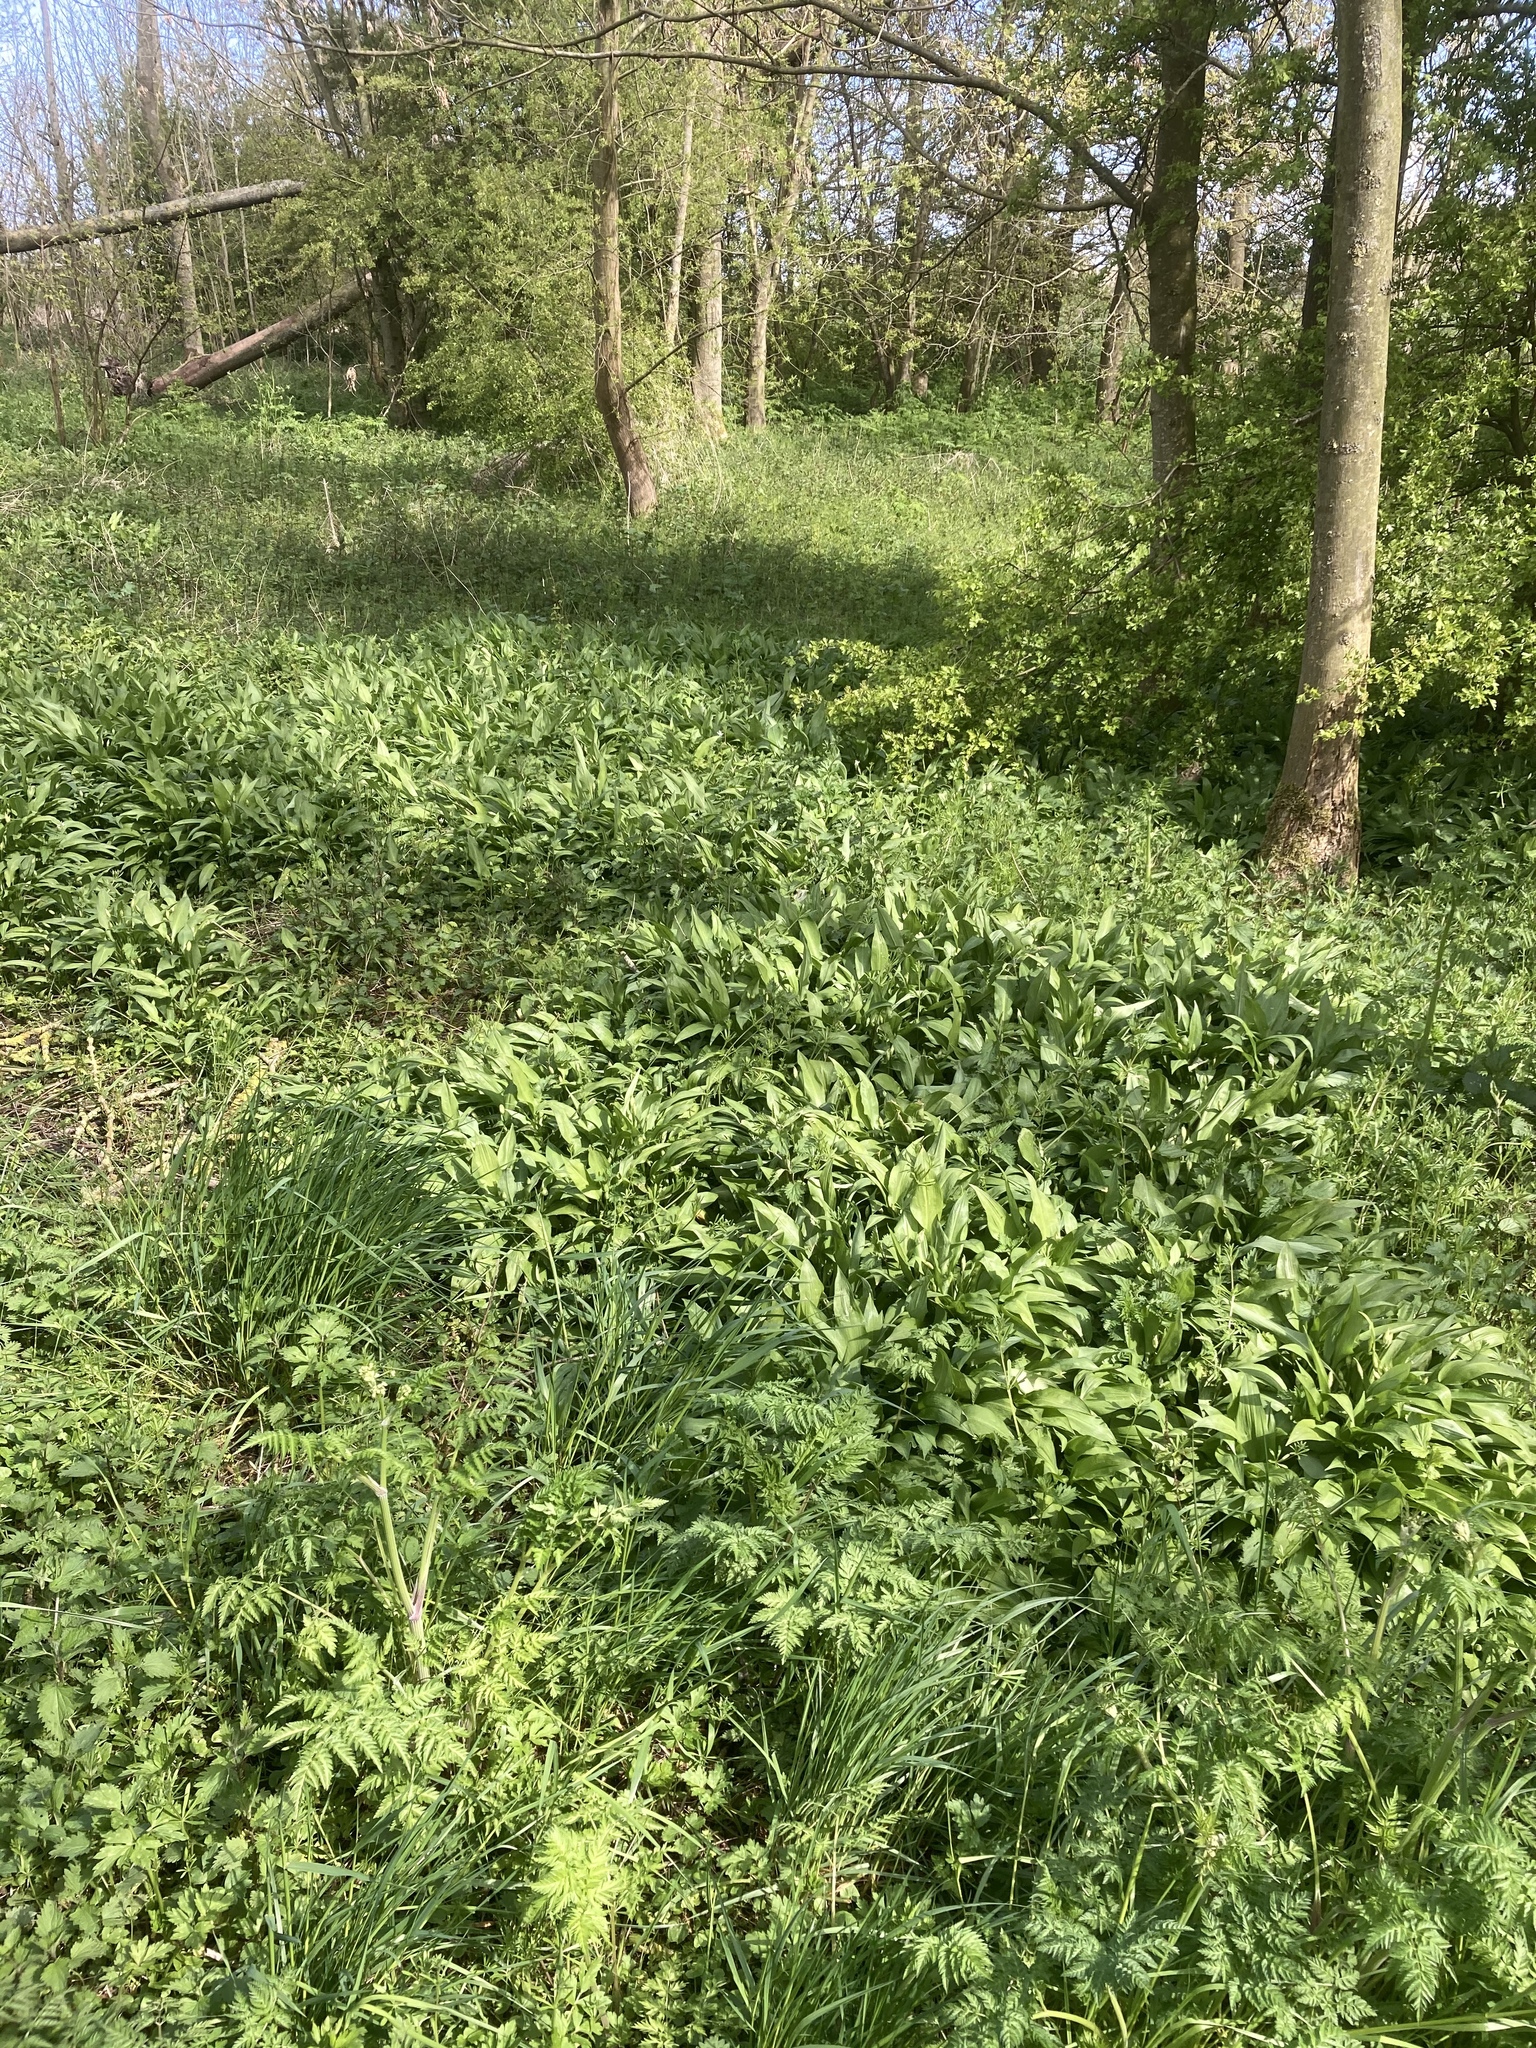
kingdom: Plantae
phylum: Tracheophyta
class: Liliopsida
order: Asparagales
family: Amaryllidaceae
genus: Allium
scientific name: Allium ursinum
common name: Ramsons
